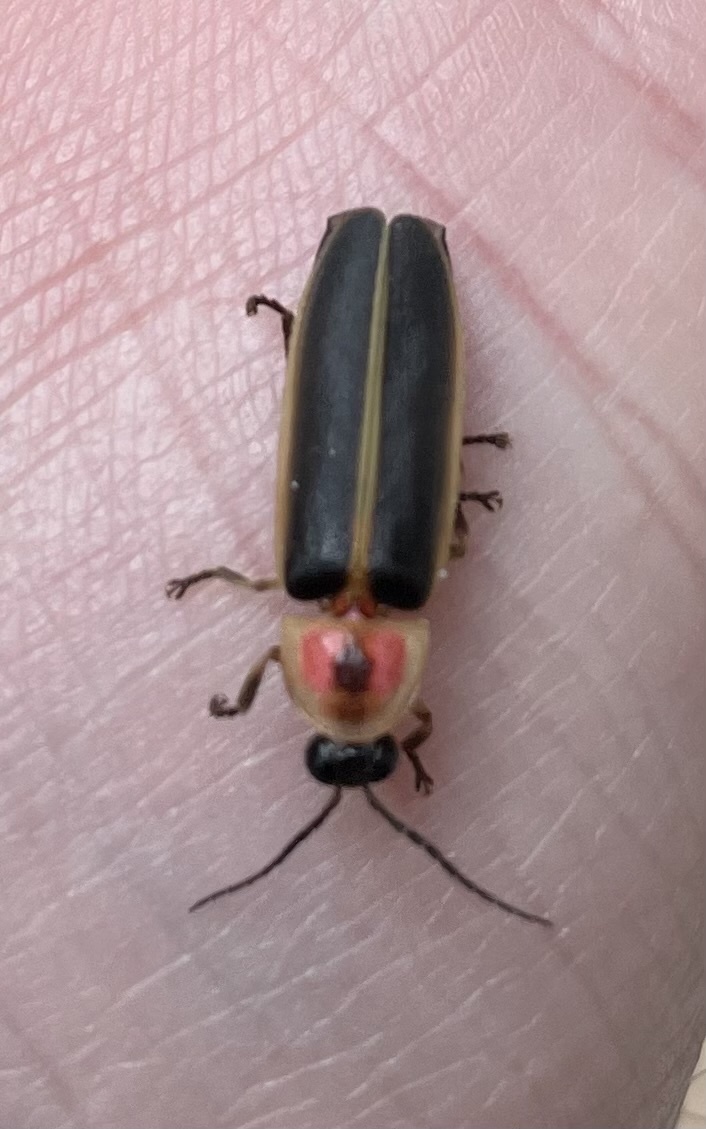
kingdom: Animalia
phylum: Arthropoda
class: Insecta
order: Coleoptera
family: Lampyridae
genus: Photinus
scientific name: Photinus pyralis
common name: Big dipper firefly
